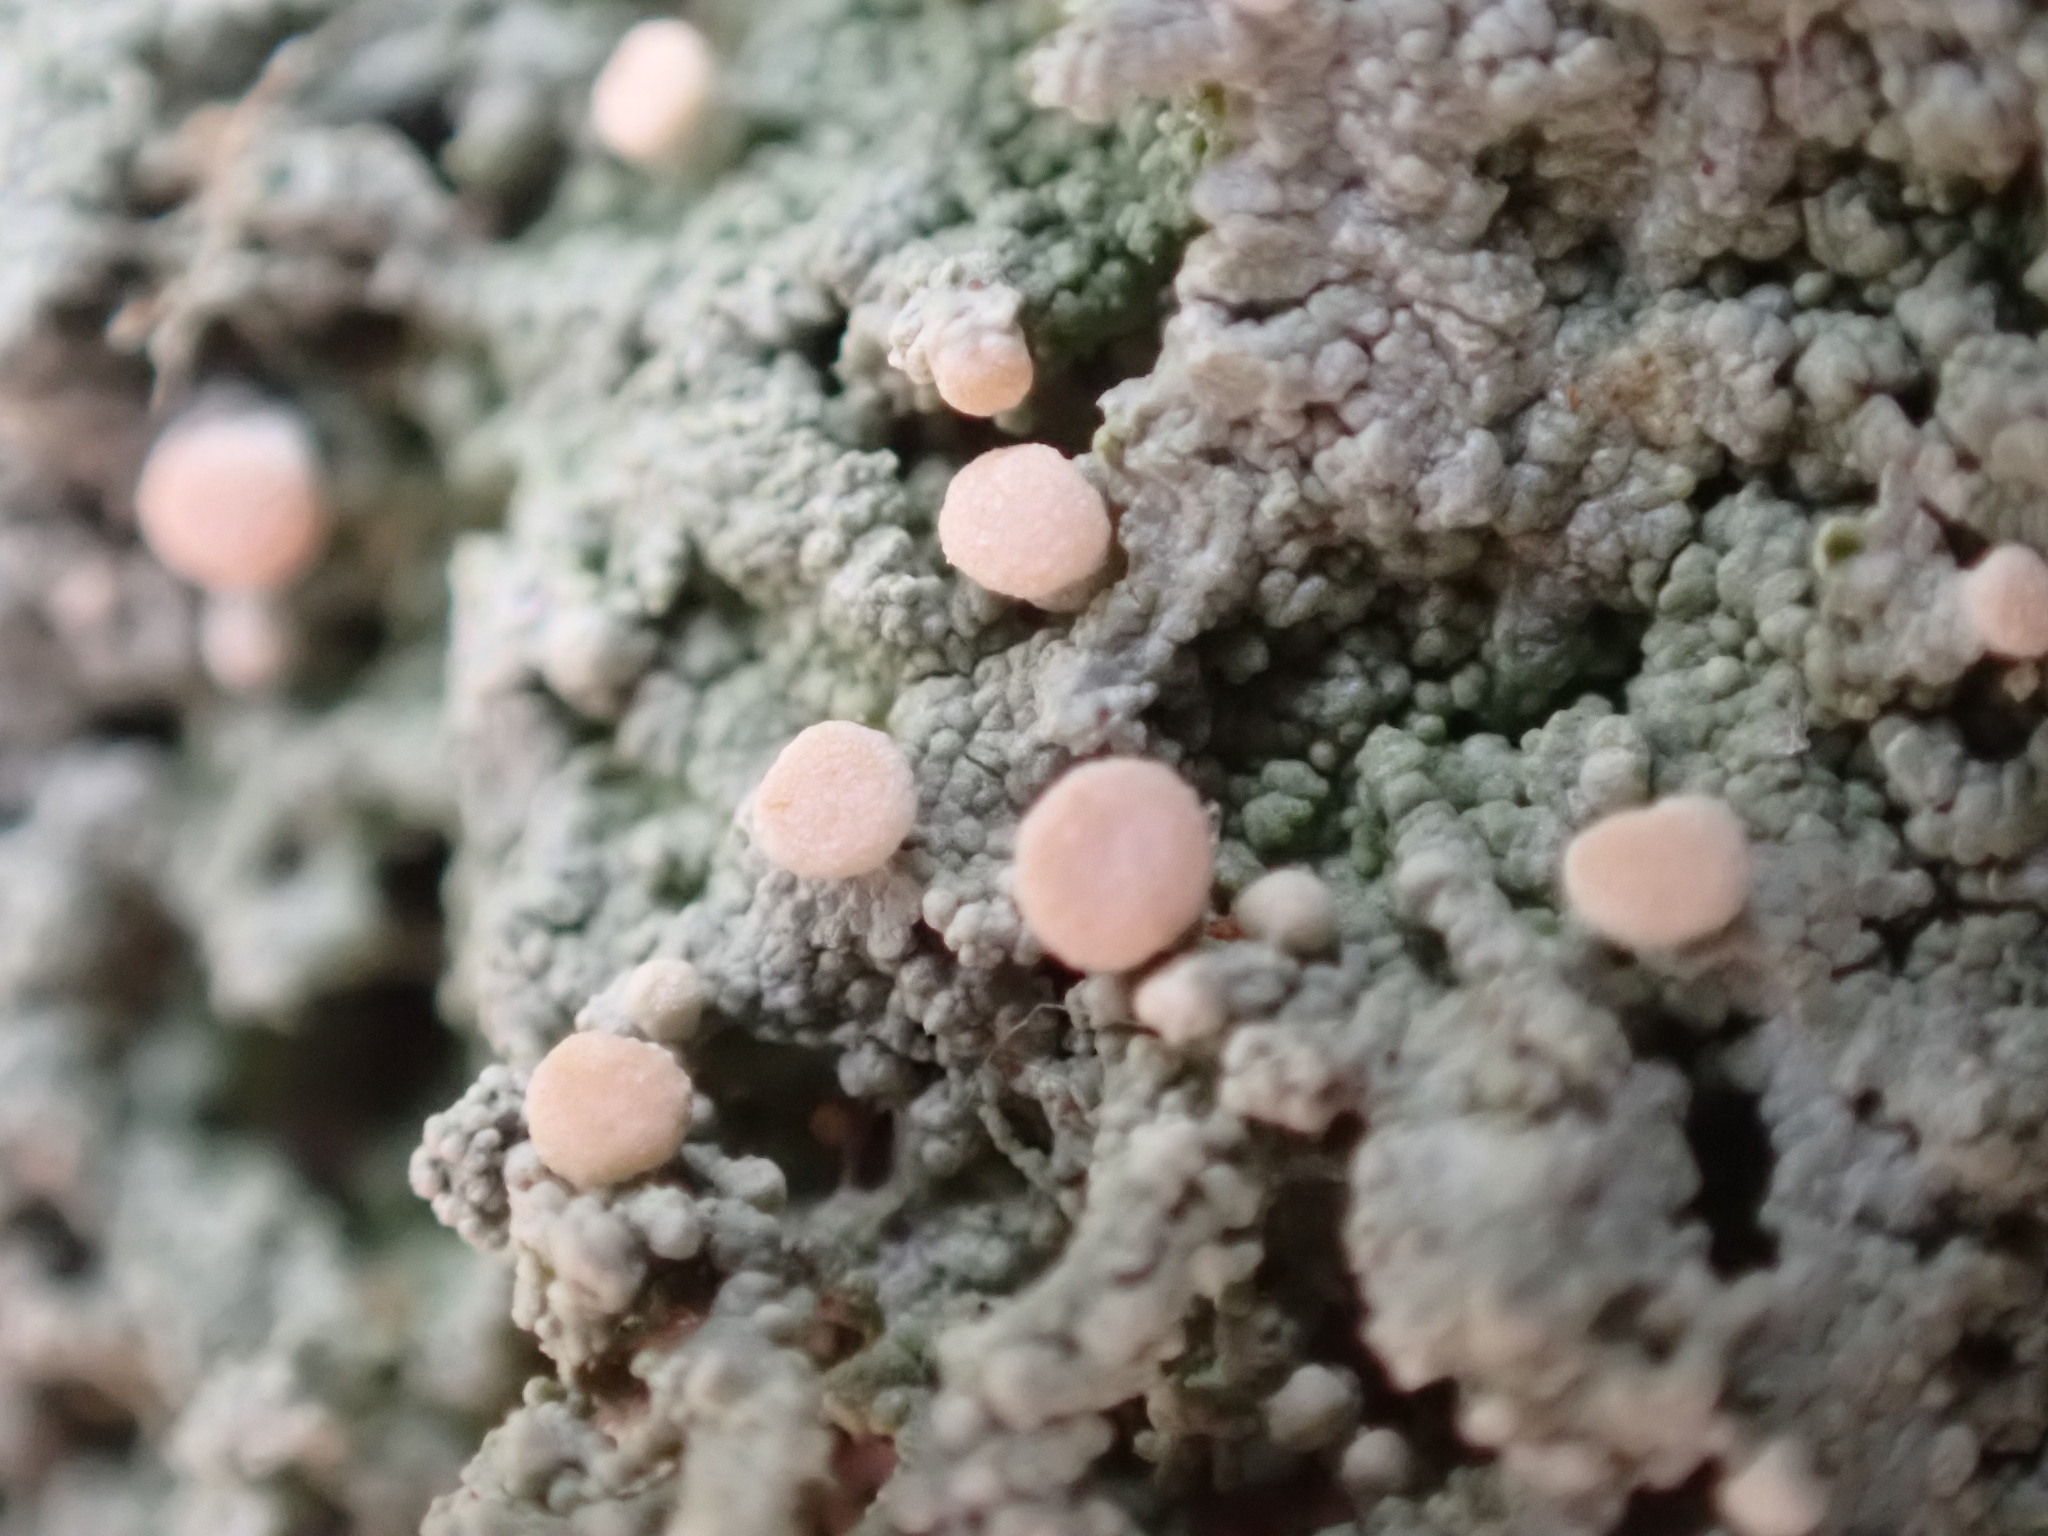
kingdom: Fungi
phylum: Ascomycota
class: Lecanoromycetes
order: Pertusariales
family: Icmadophilaceae
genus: Icmadophila
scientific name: Icmadophila ericetorum
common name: Candy lichen
